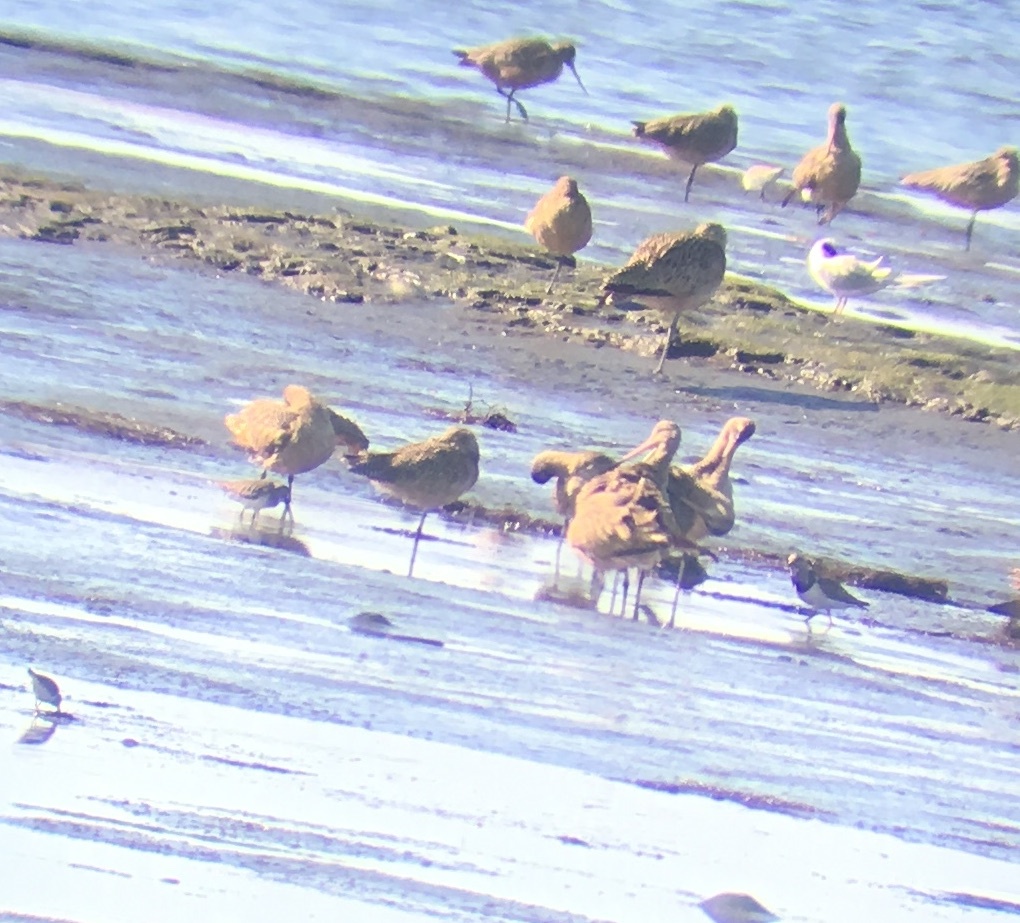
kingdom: Animalia
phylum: Chordata
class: Aves
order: Charadriiformes
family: Scolopacidae
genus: Limosa
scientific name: Limosa fedoa
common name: Marbled godwit
